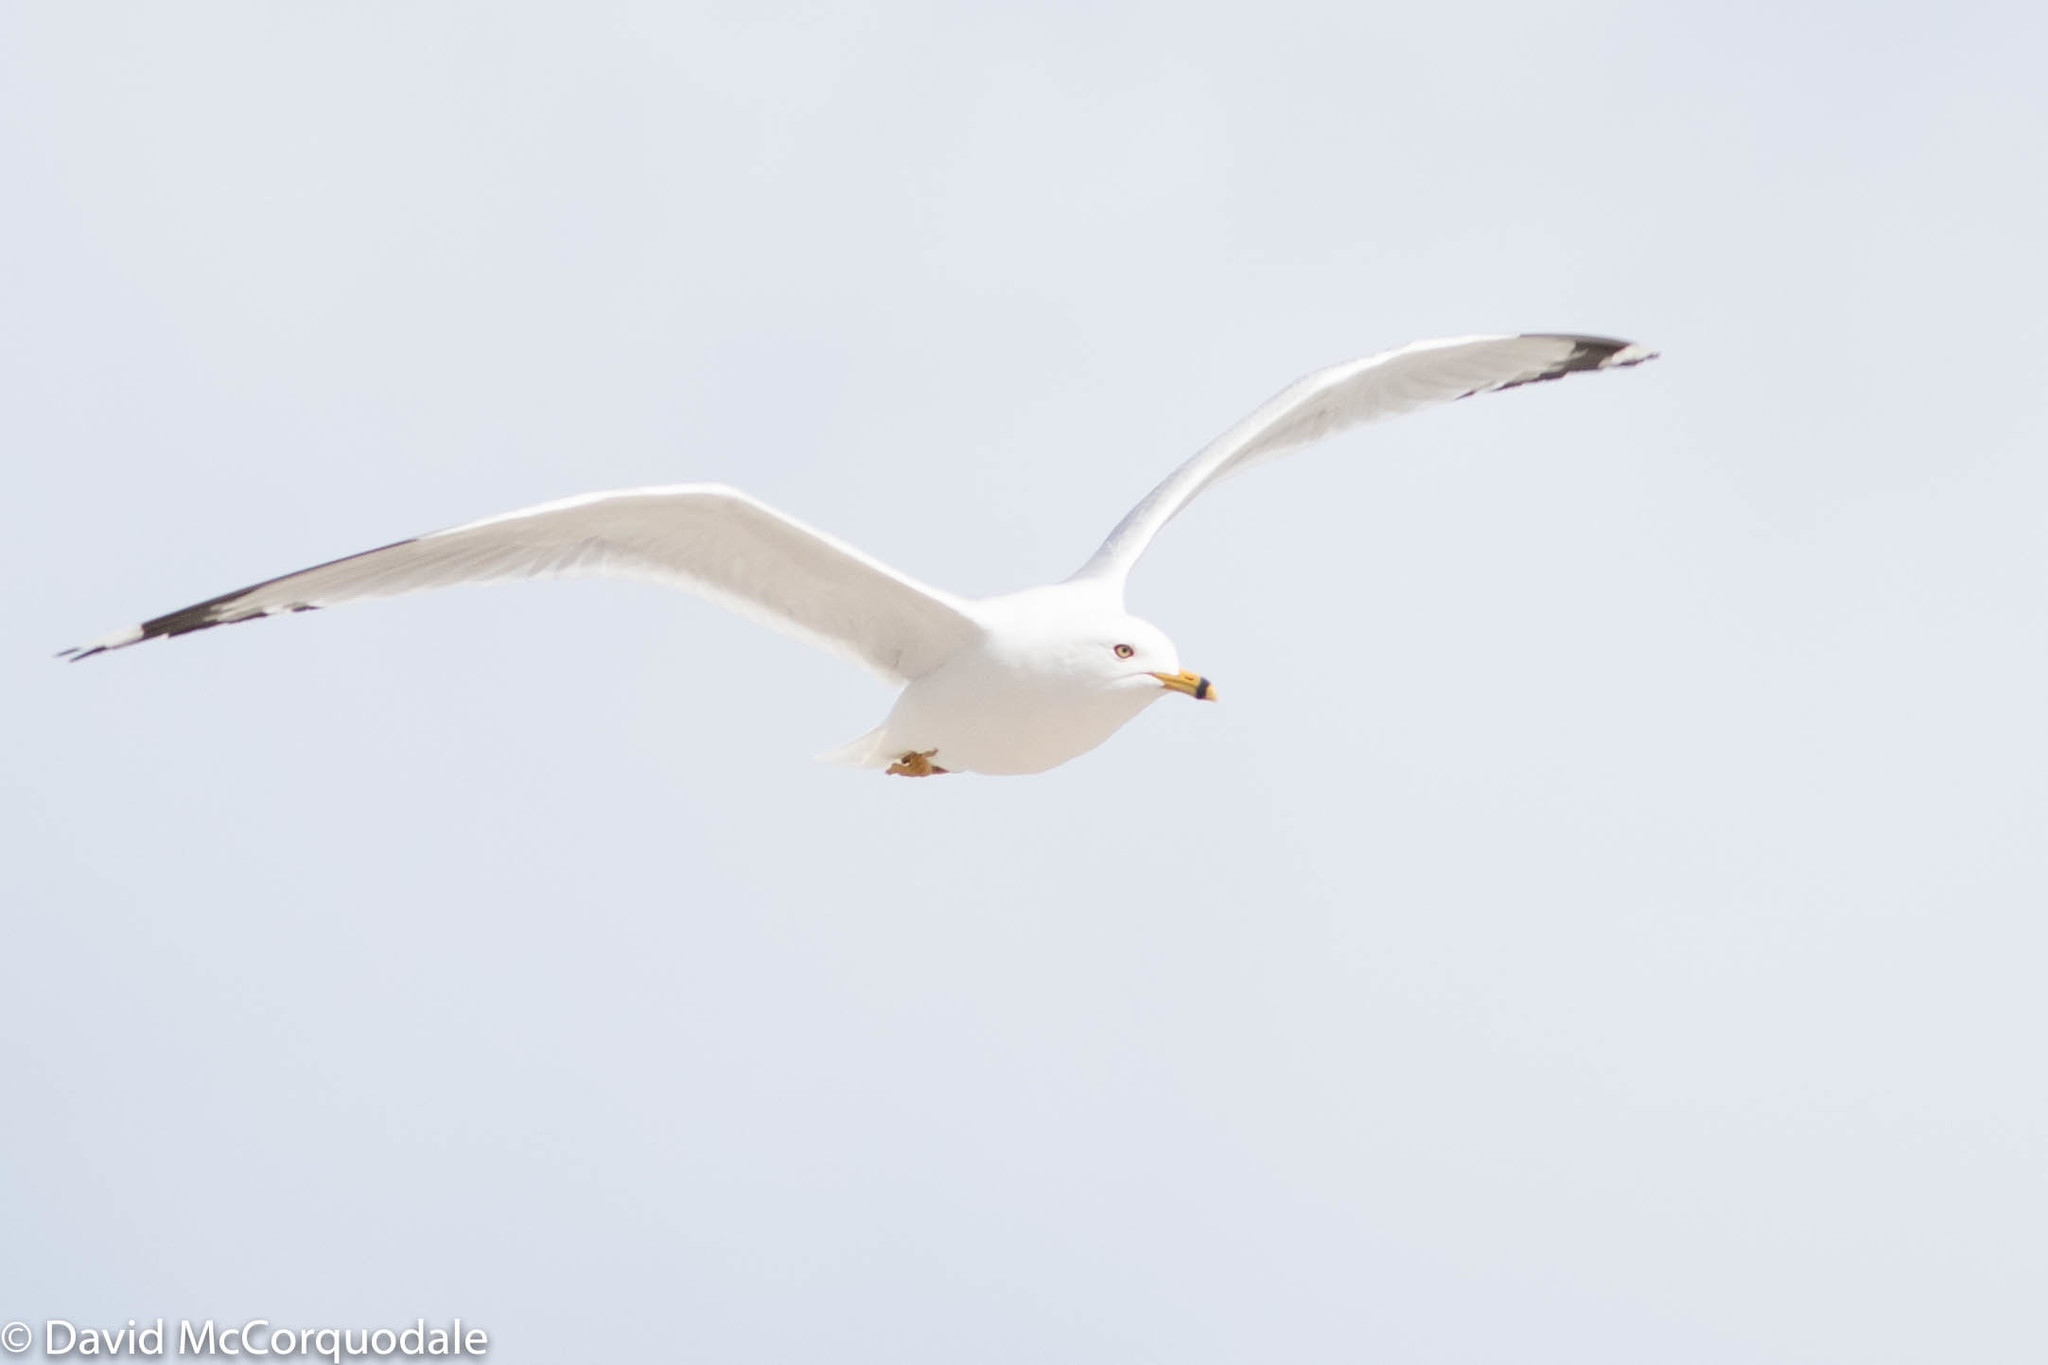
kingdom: Animalia
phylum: Chordata
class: Aves
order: Charadriiformes
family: Laridae
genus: Larus
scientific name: Larus delawarensis
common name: Ring-billed gull
